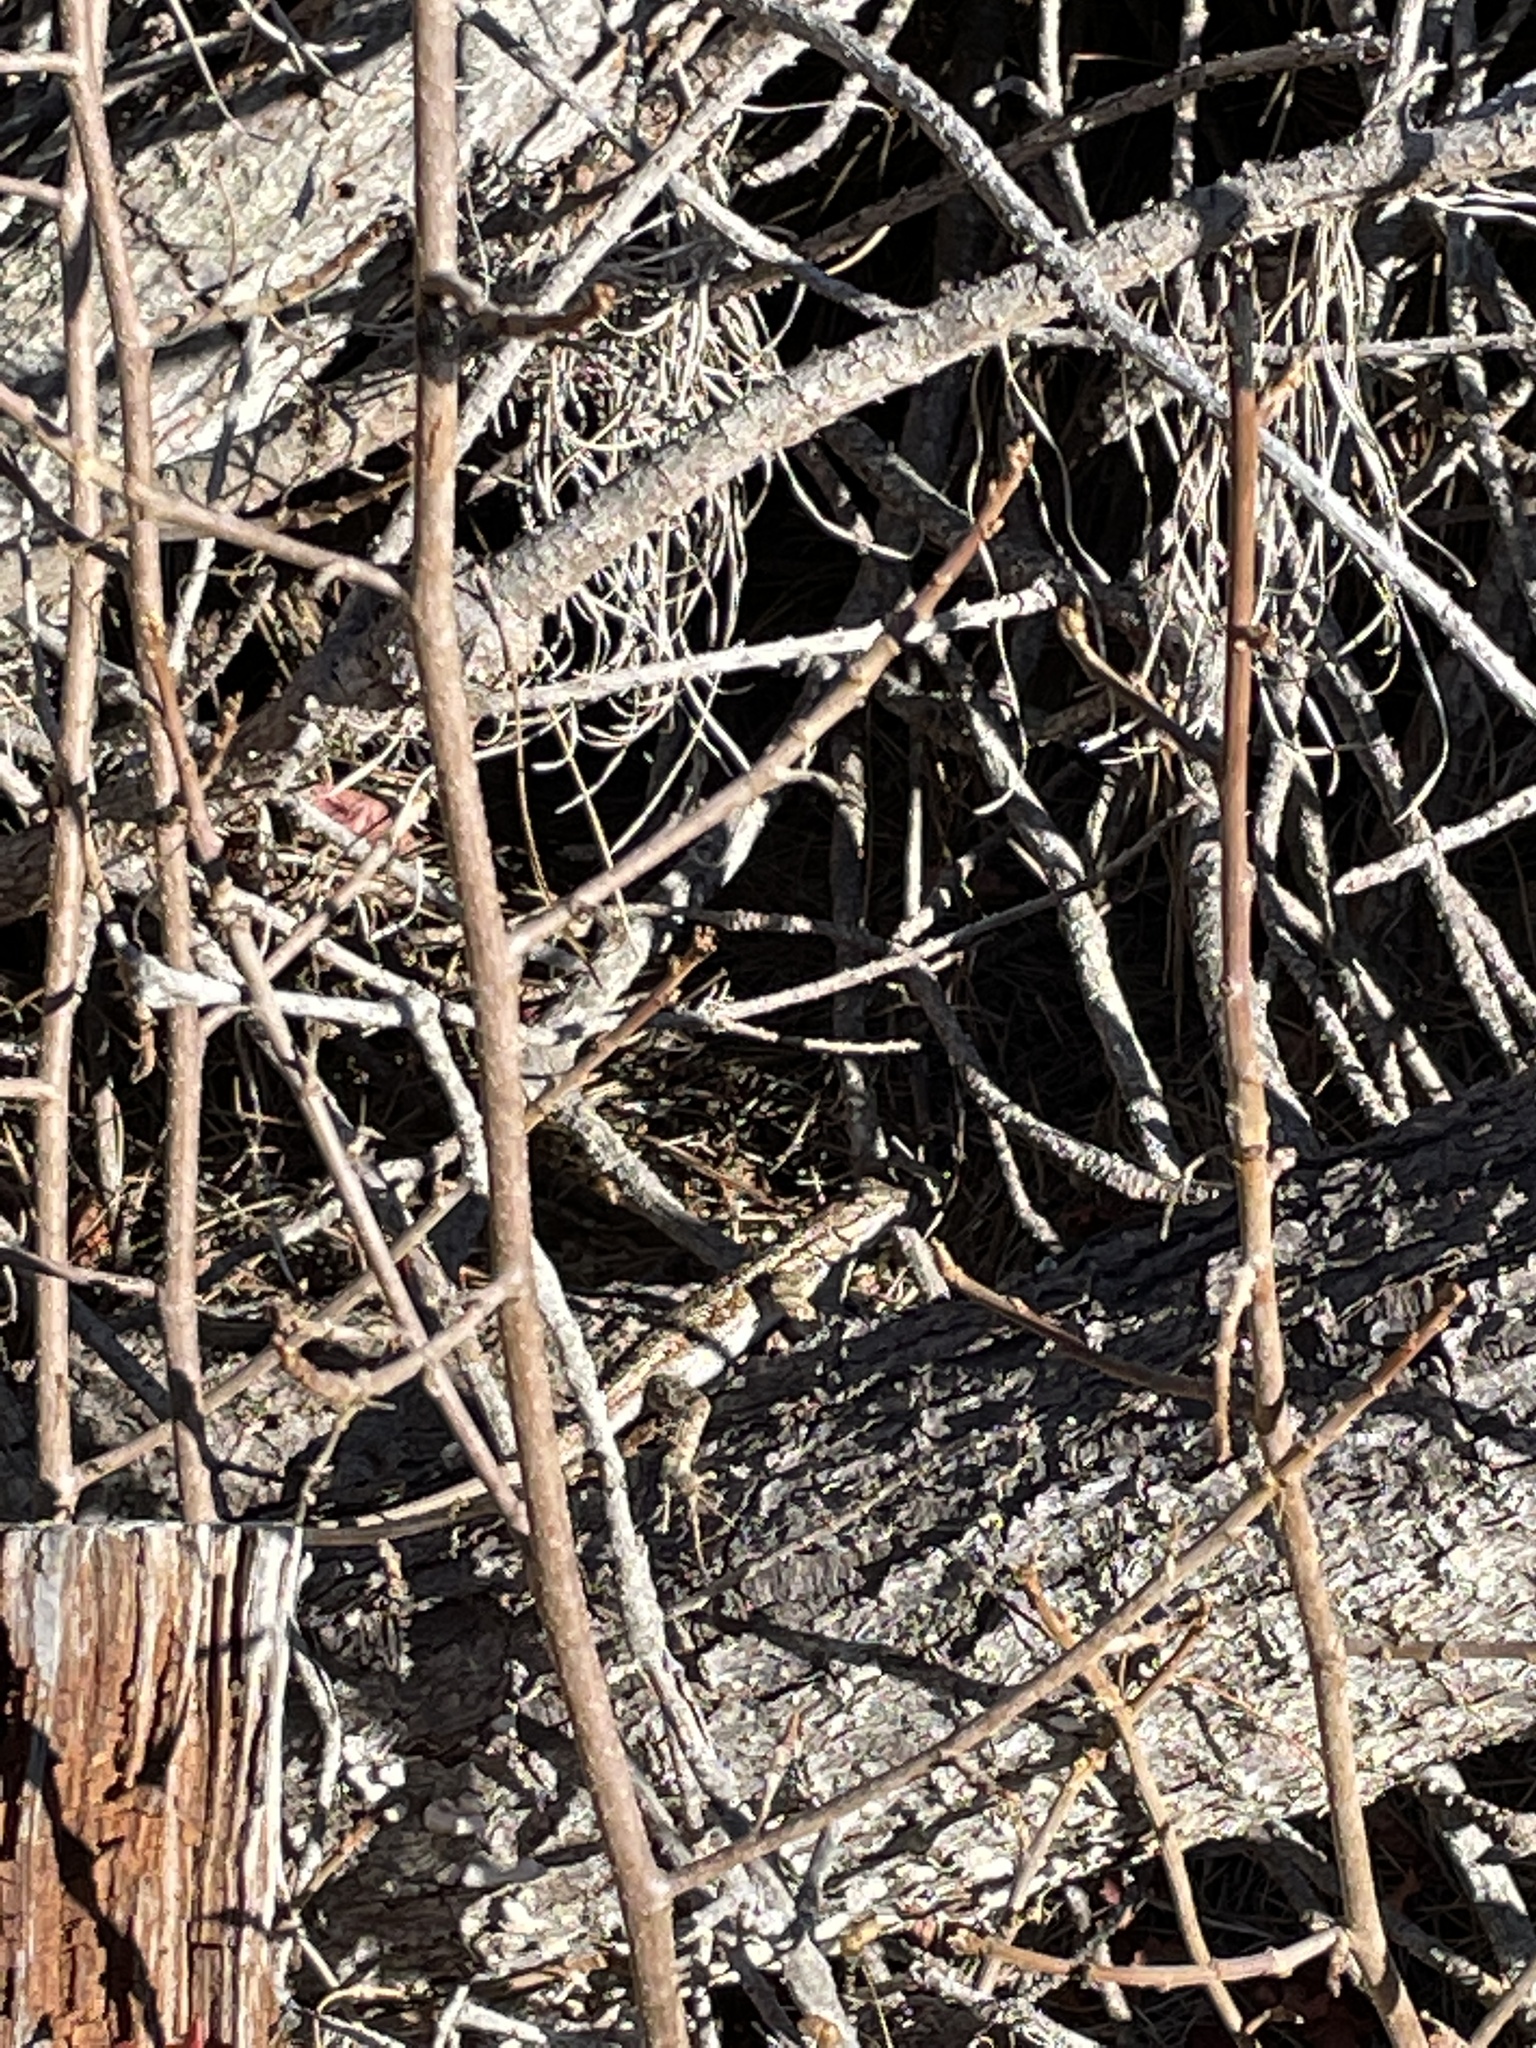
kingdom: Animalia
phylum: Chordata
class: Squamata
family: Phrynosomatidae
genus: Sceloporus
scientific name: Sceloporus occidentalis
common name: Western fence lizard
